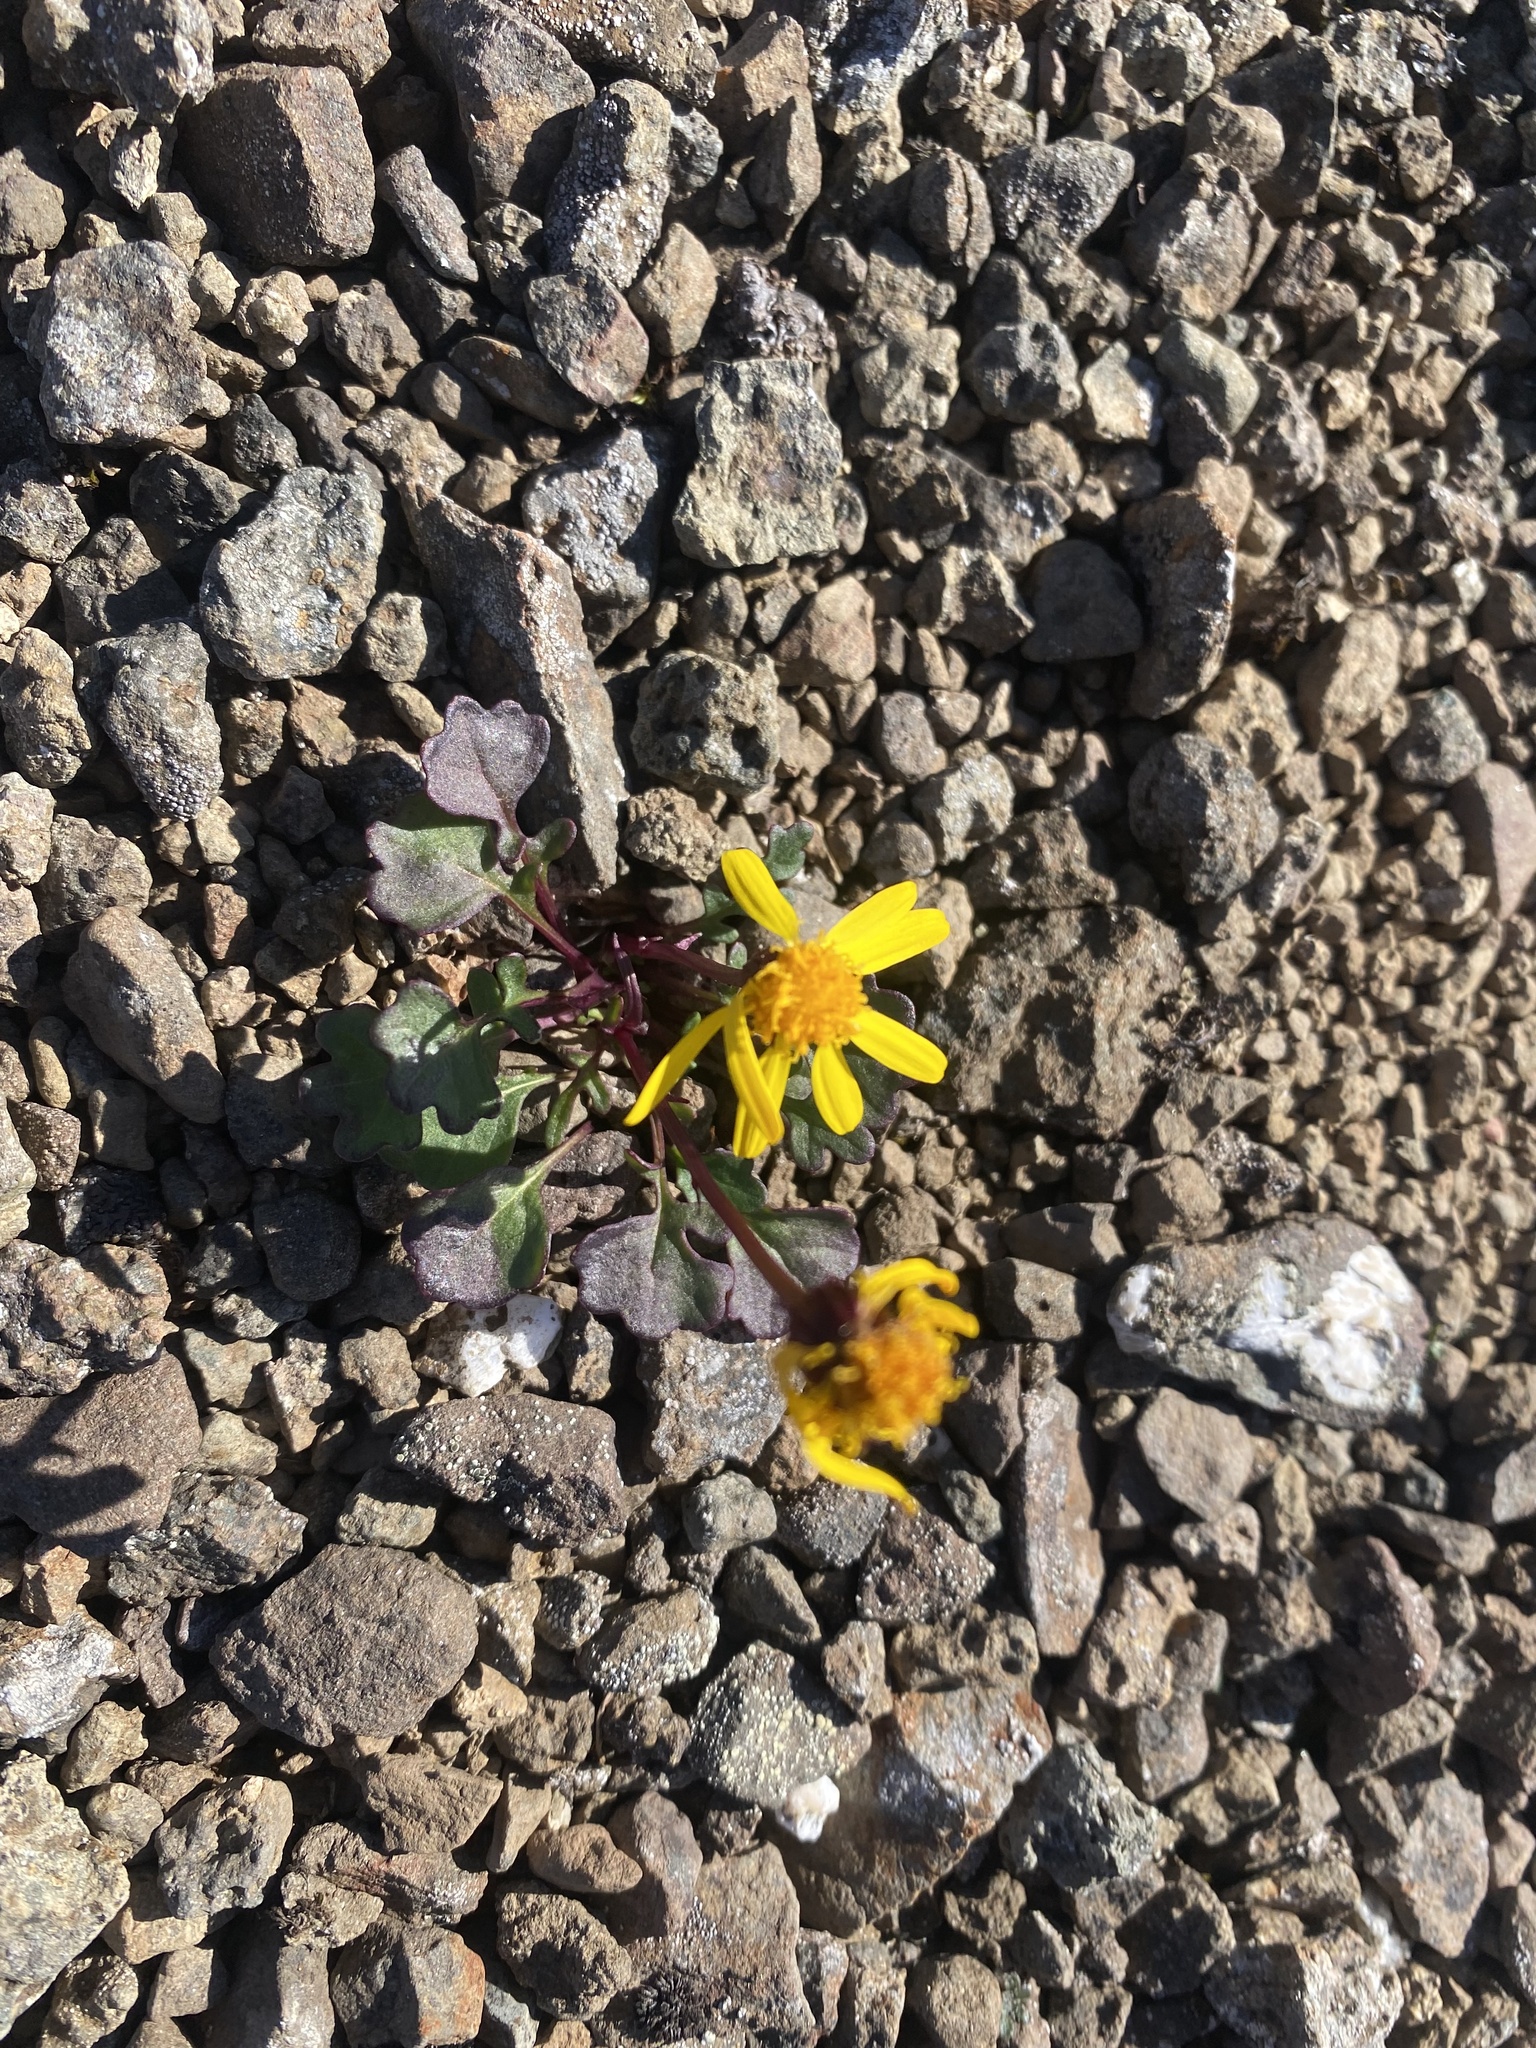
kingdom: Plantae
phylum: Tracheophyta
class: Magnoliopsida
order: Asterales
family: Asteraceae
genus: Packera
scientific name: Packera heterophylla
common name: Arctic butterweed
